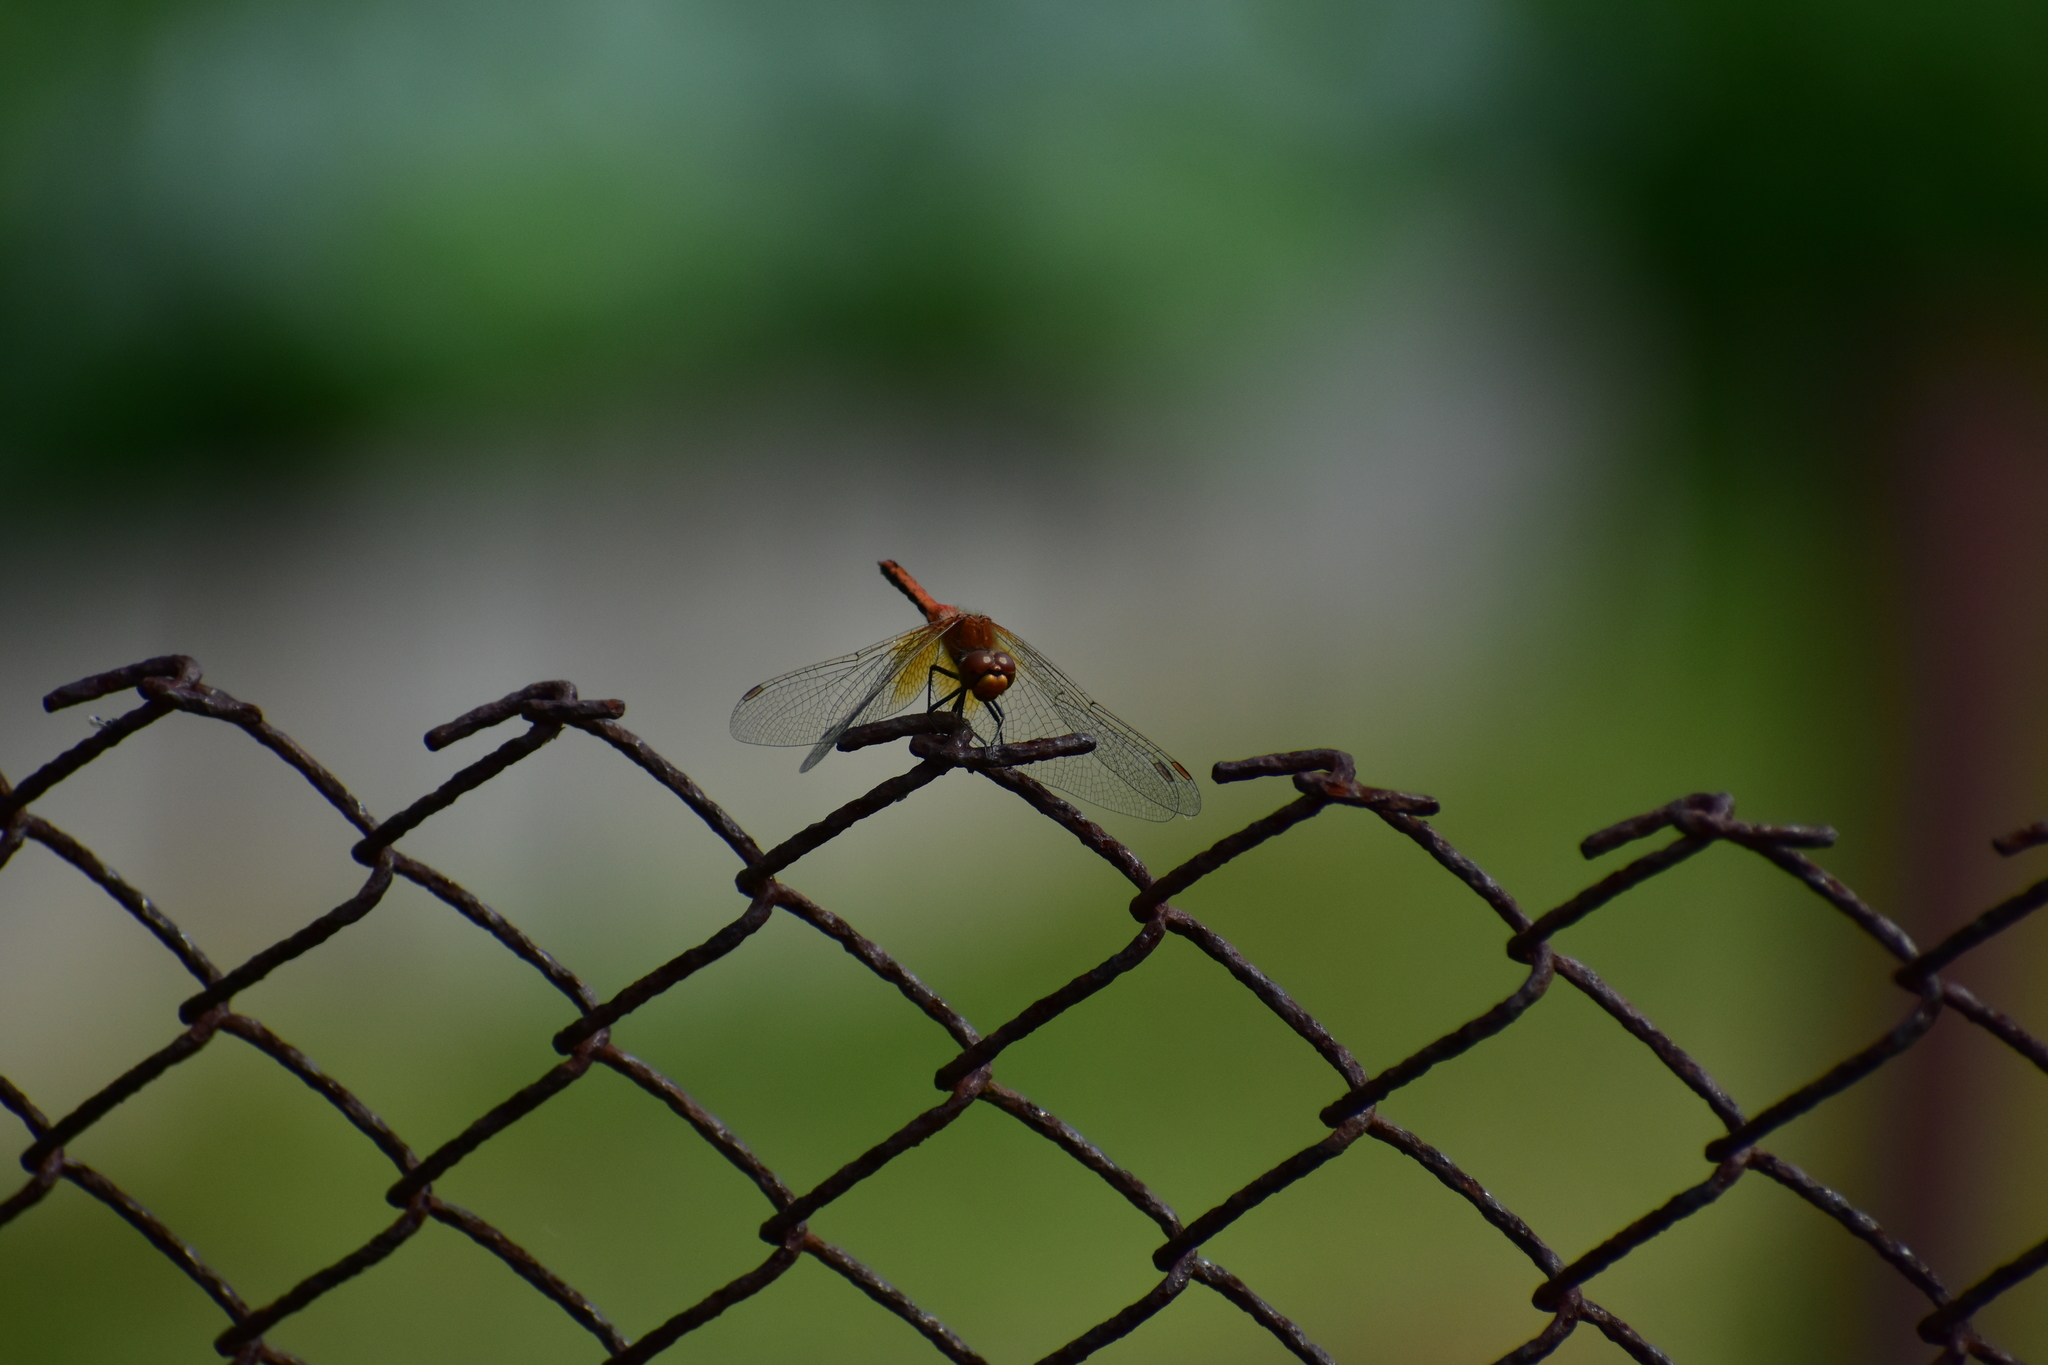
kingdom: Animalia
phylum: Arthropoda
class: Insecta
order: Odonata
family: Libellulidae
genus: Sympetrum
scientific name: Sympetrum flaveolum
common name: Yellow-winged darter
